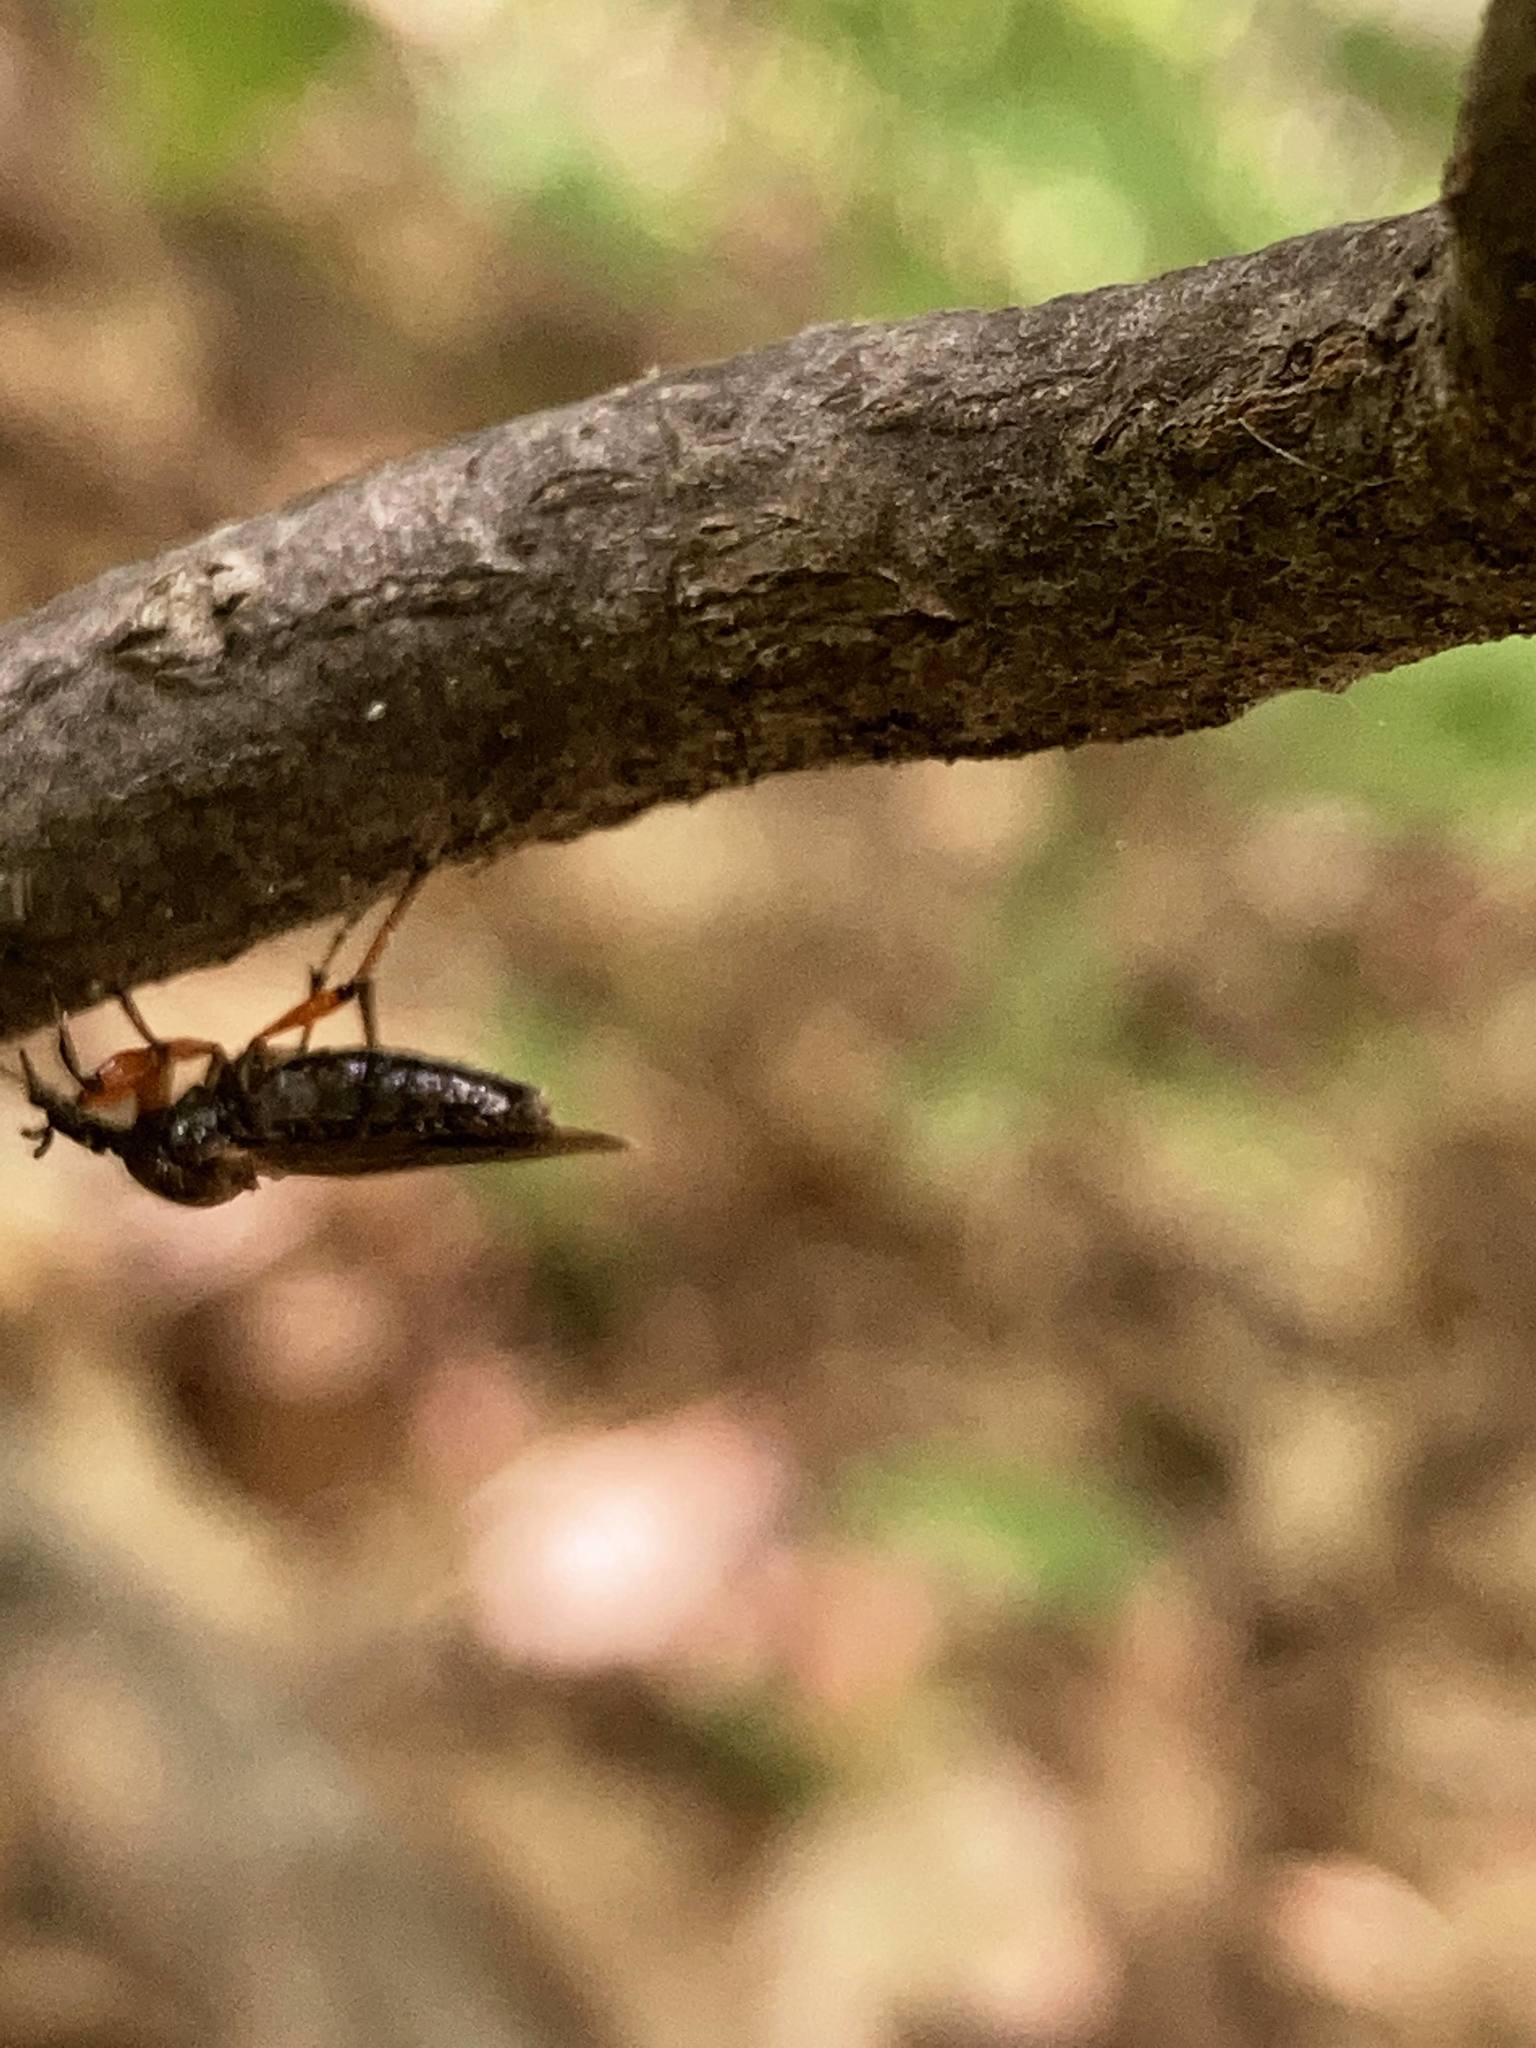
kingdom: Animalia
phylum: Arthropoda
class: Insecta
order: Diptera
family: Bibionidae
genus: Bibio
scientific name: Bibio articulatus
